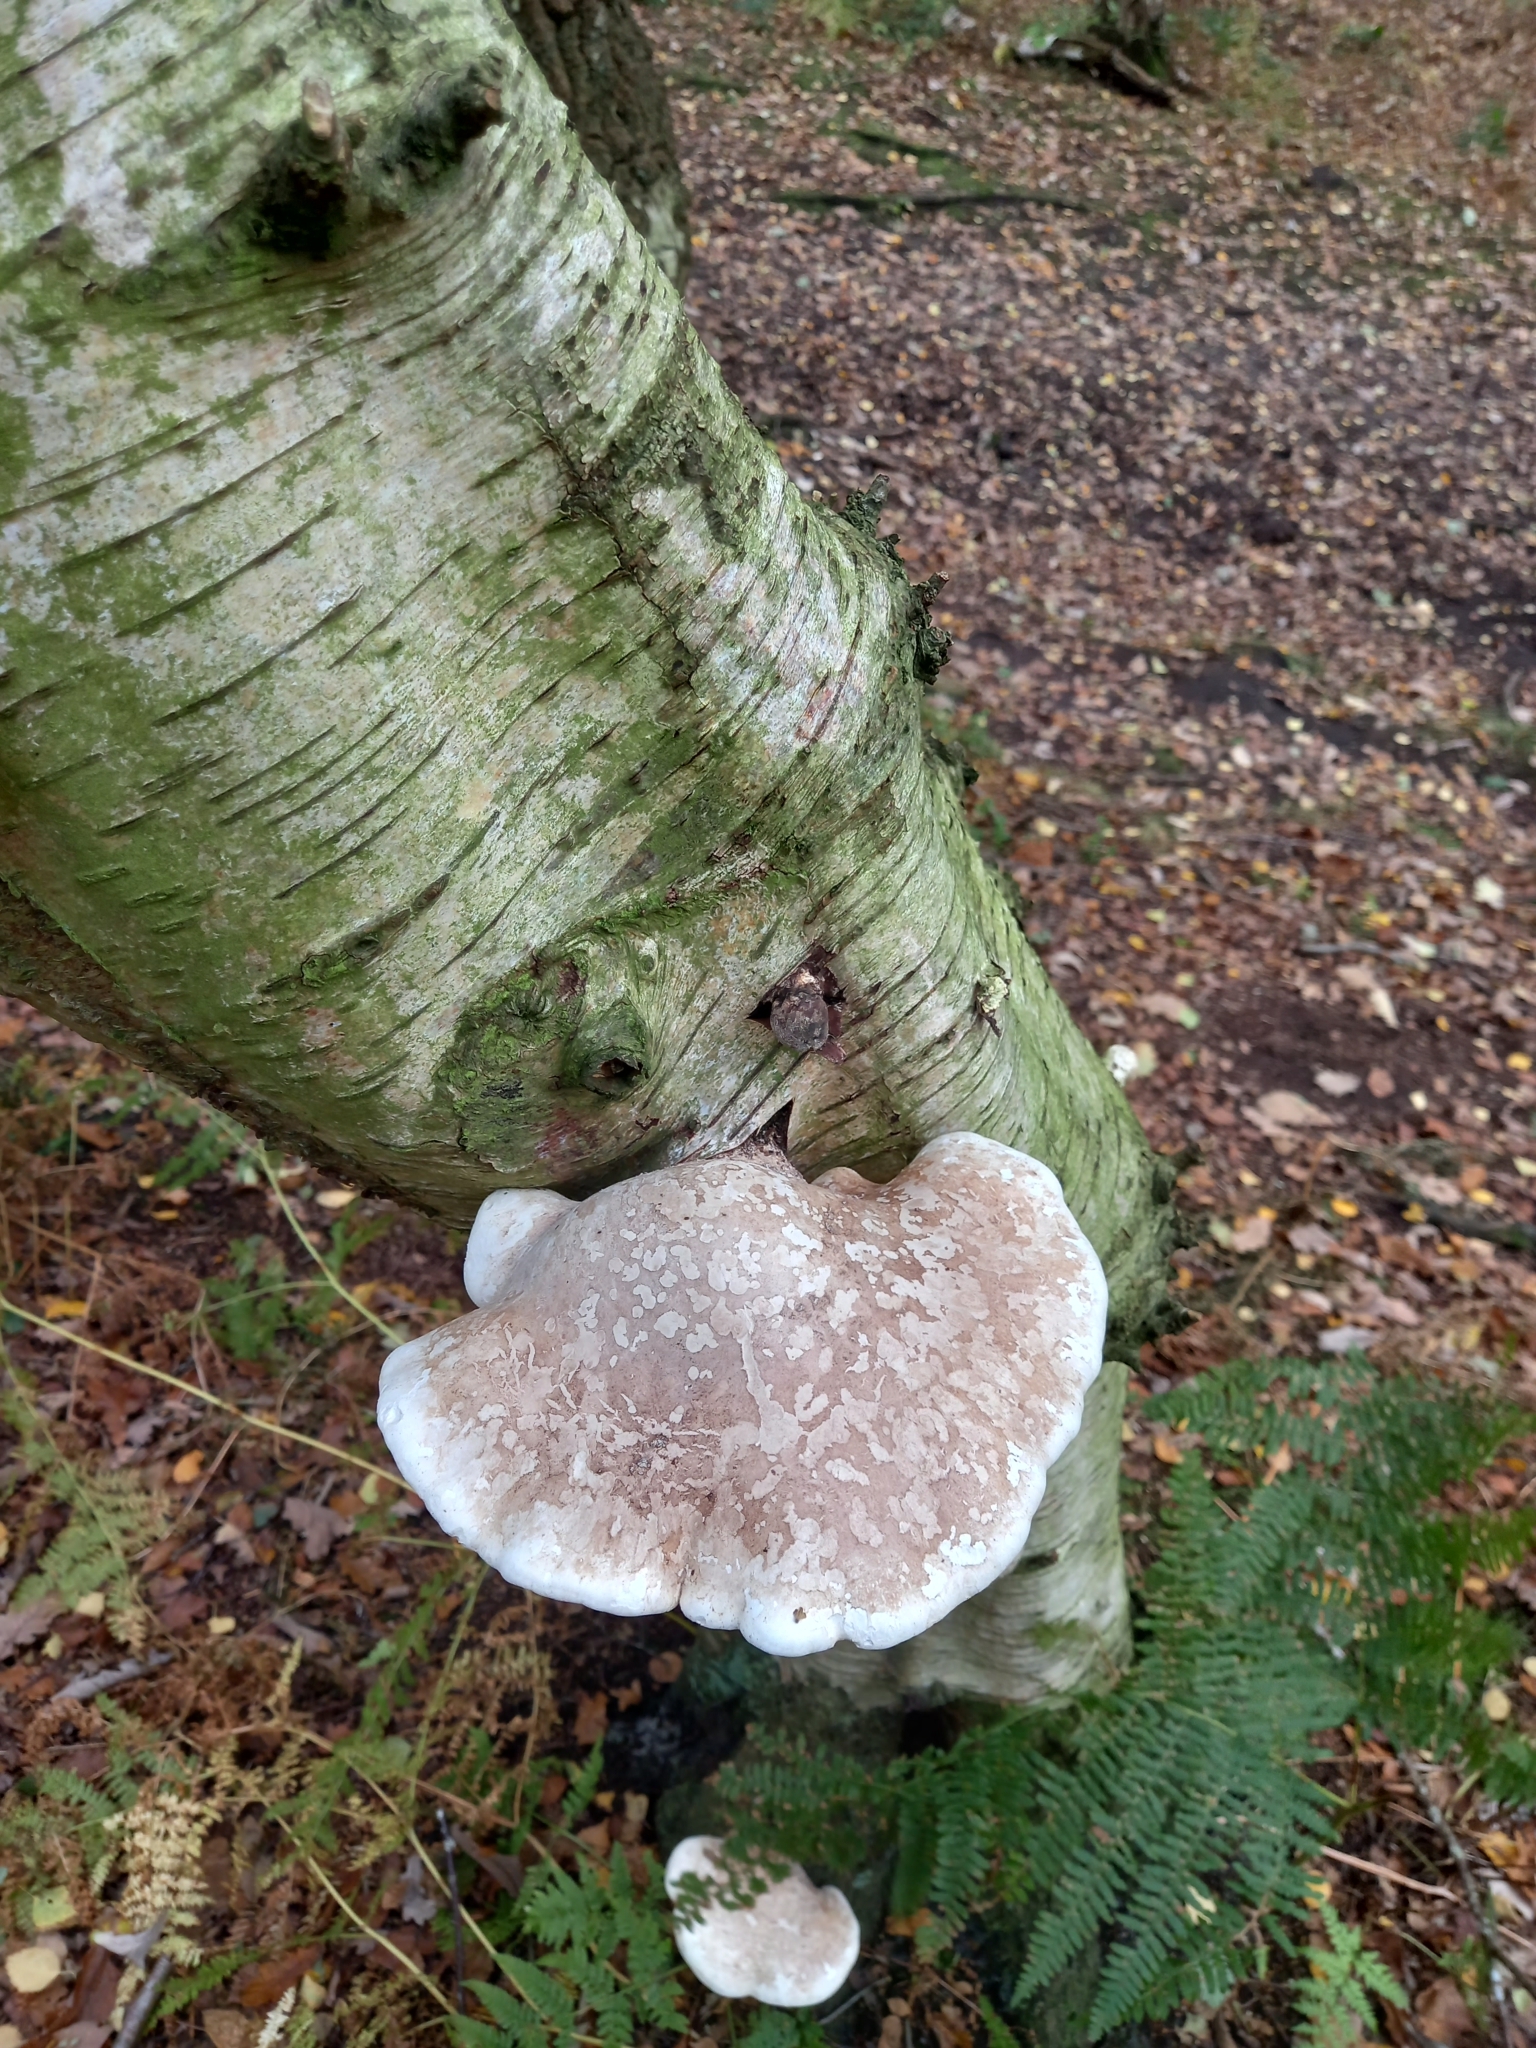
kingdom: Fungi
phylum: Basidiomycota
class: Agaricomycetes
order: Polyporales
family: Fomitopsidaceae
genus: Fomitopsis
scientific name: Fomitopsis betulina
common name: Birch polypore
